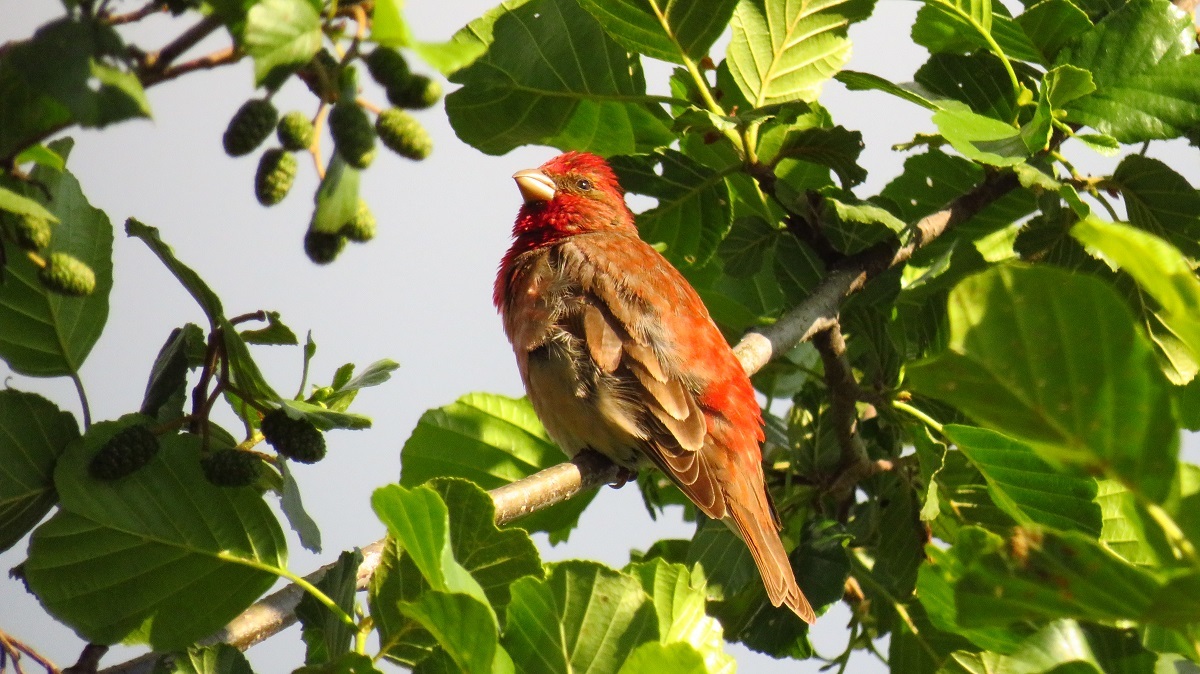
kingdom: Animalia
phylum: Chordata
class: Aves
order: Passeriformes
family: Fringillidae
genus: Carpodacus
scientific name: Carpodacus erythrinus
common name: Common rosefinch
